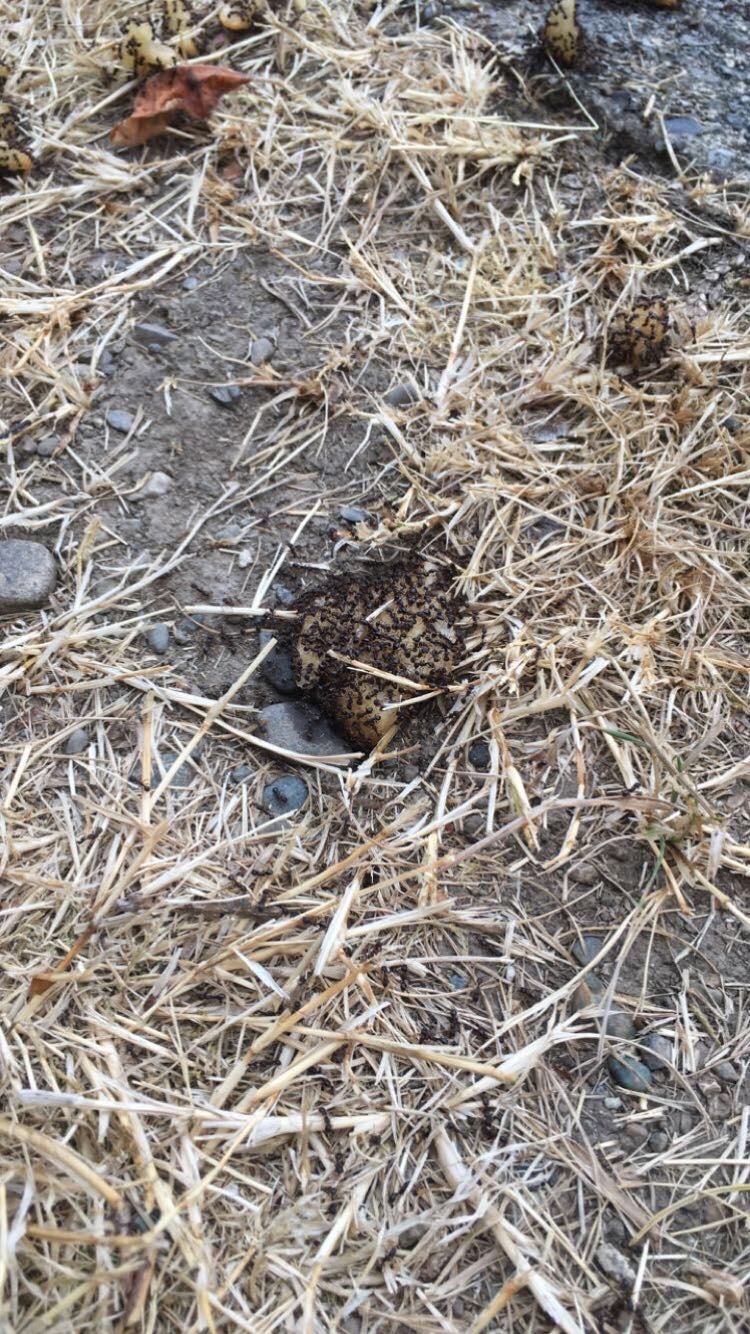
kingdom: Animalia
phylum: Arthropoda
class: Insecta
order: Hymenoptera
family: Formicidae
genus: Tetramorium
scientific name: Tetramorium immigrans
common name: Pavement ant
